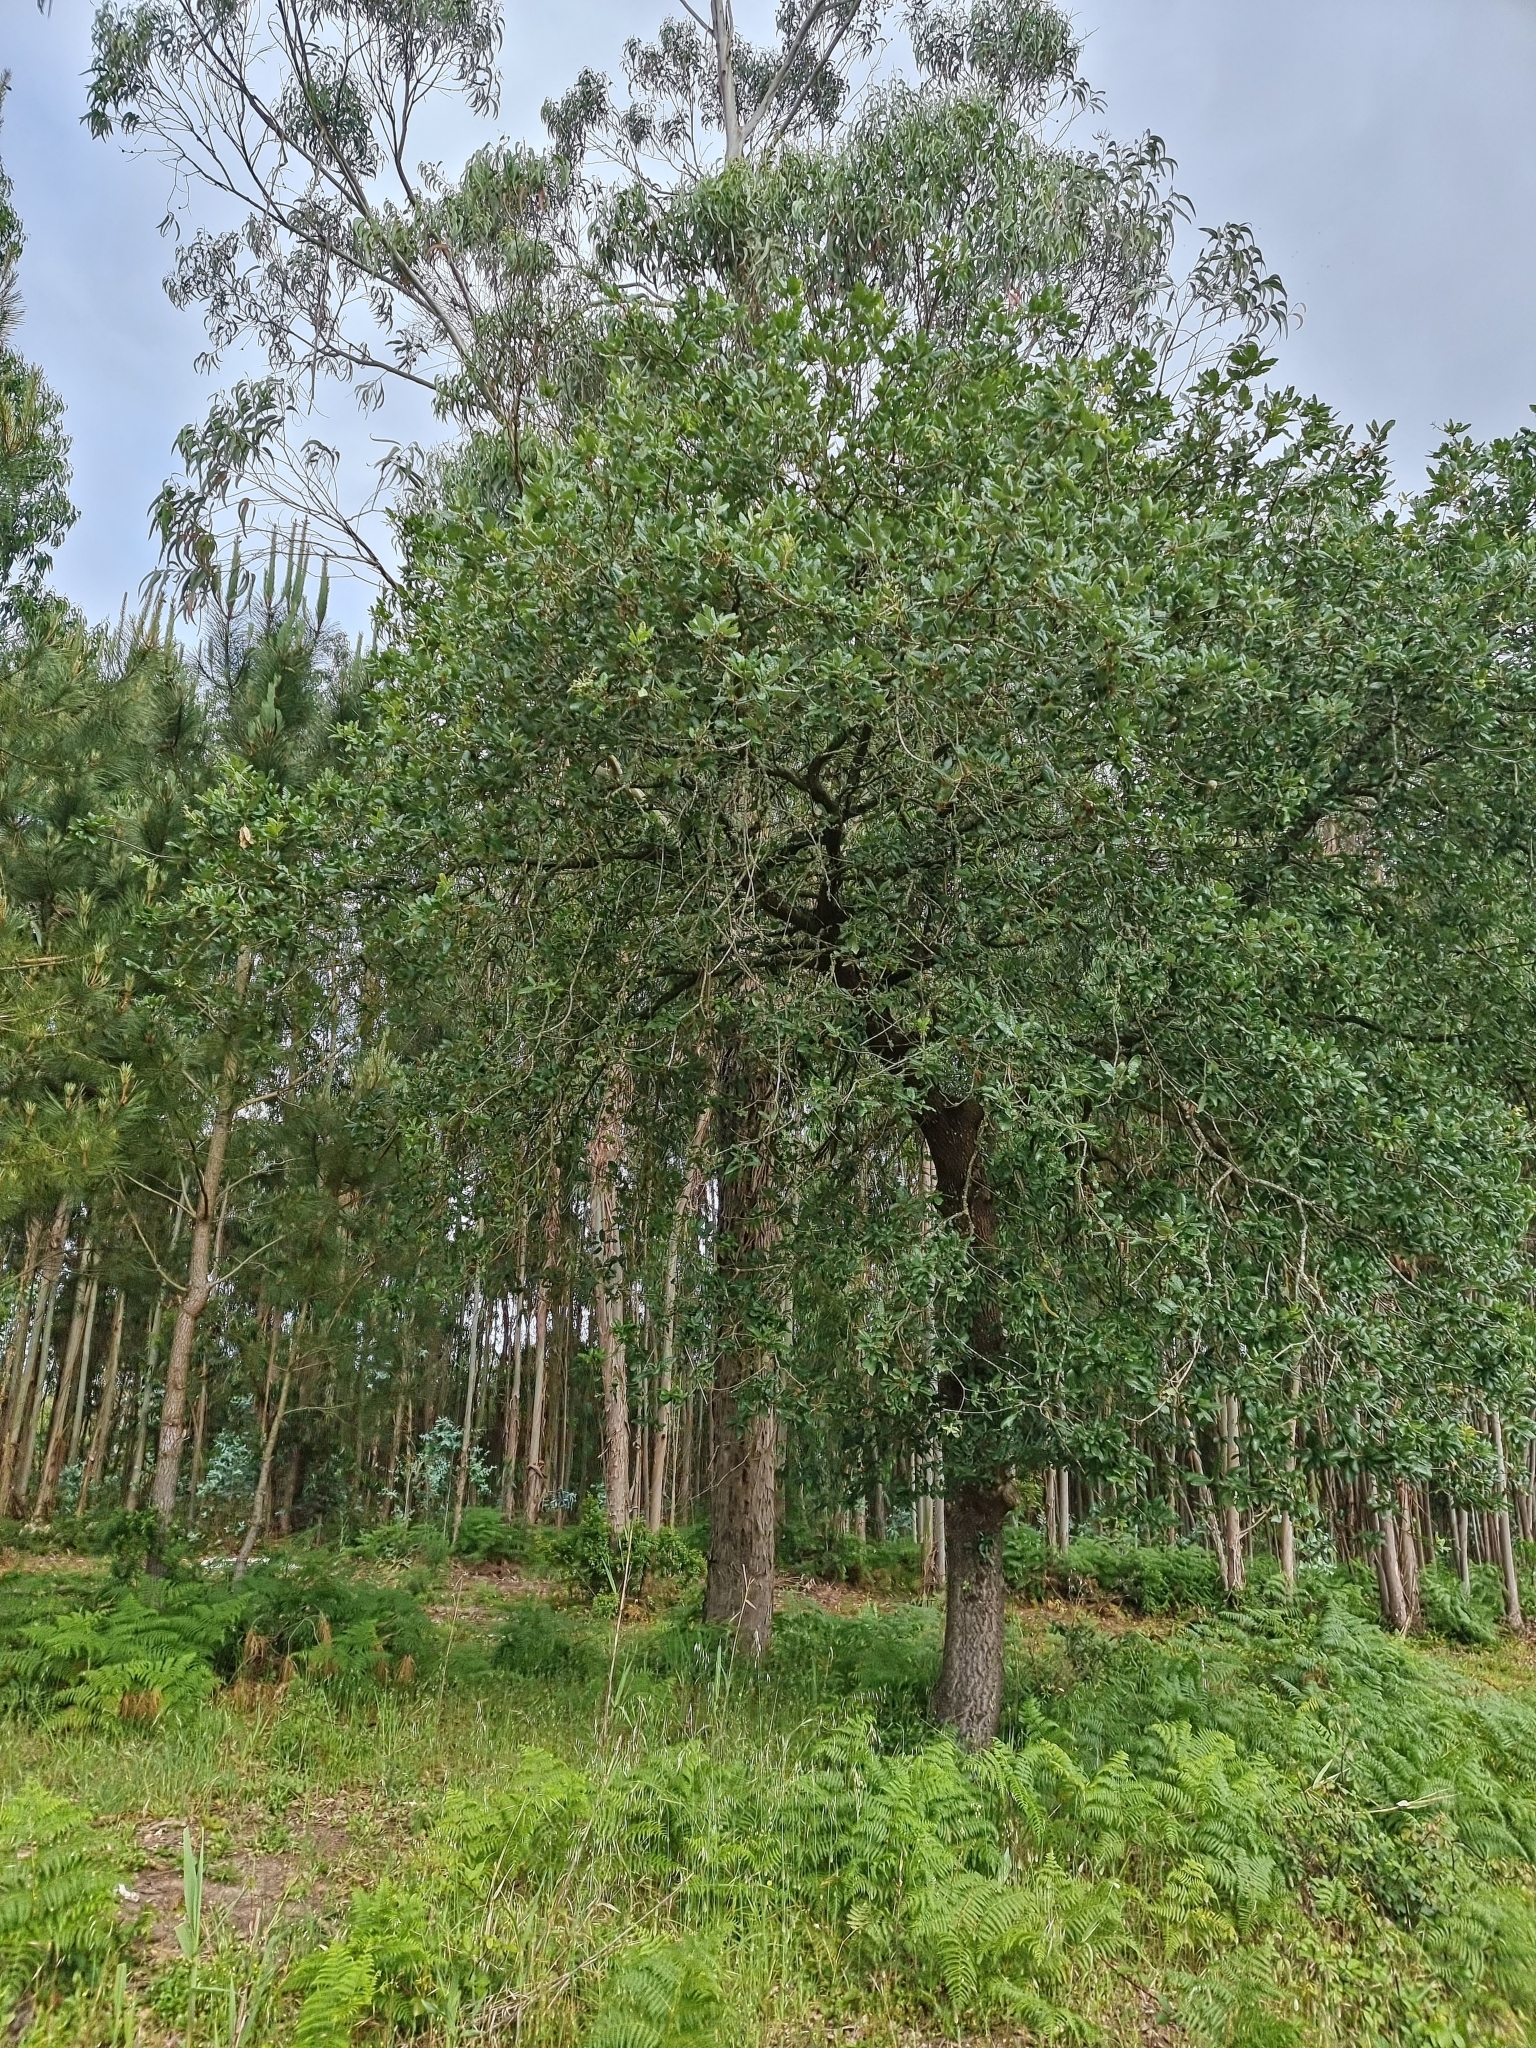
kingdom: Plantae
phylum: Tracheophyta
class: Magnoliopsida
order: Fagales
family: Fagaceae
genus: Quercus
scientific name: Quercus faginea
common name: Gall oak tree
